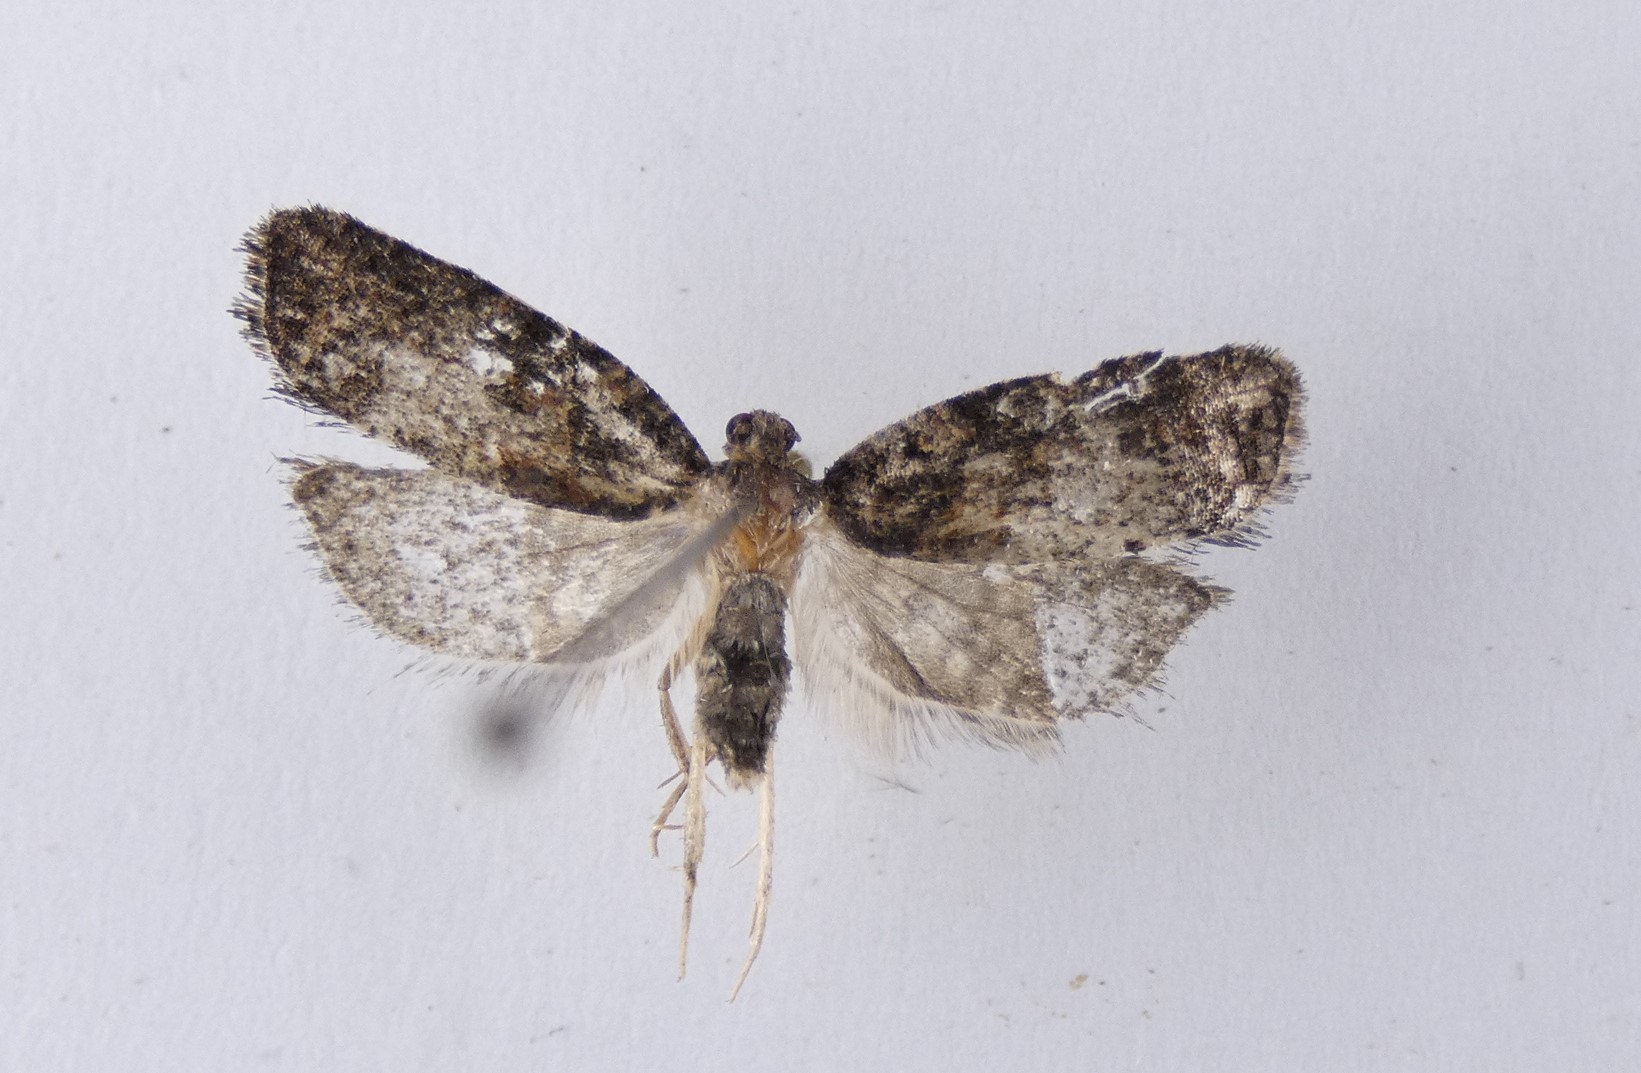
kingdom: Animalia
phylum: Arthropoda
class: Insecta
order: Lepidoptera
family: Tortricidae
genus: Capua
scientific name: Capua intractana
